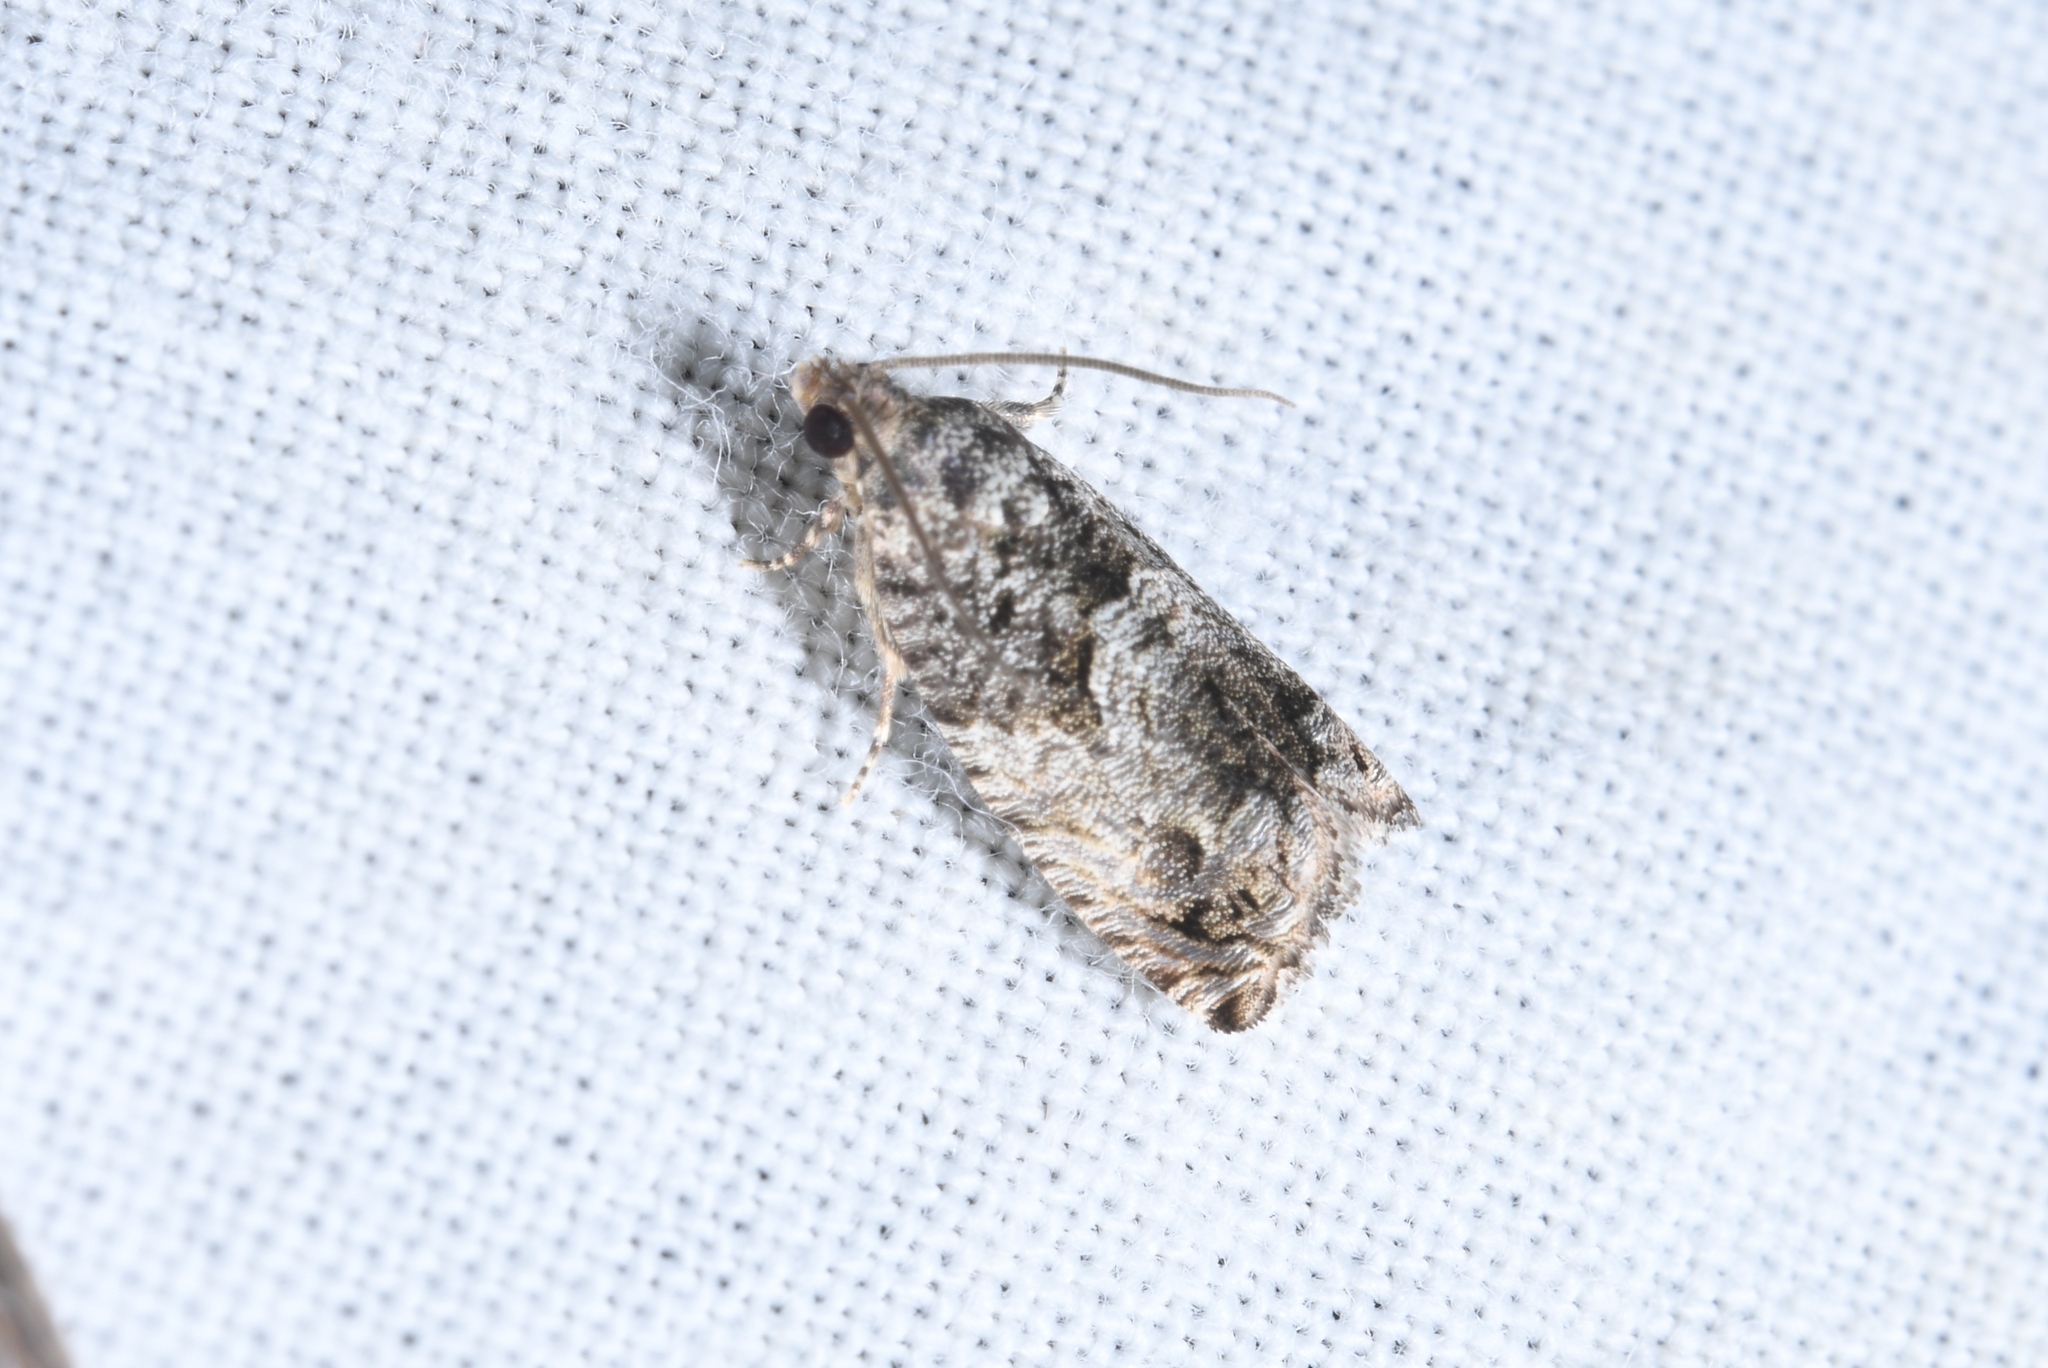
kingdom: Animalia
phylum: Arthropoda
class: Insecta
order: Lepidoptera
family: Tortricidae
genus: Cydia
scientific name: Cydia fagiglandana
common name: Large beech piercer
